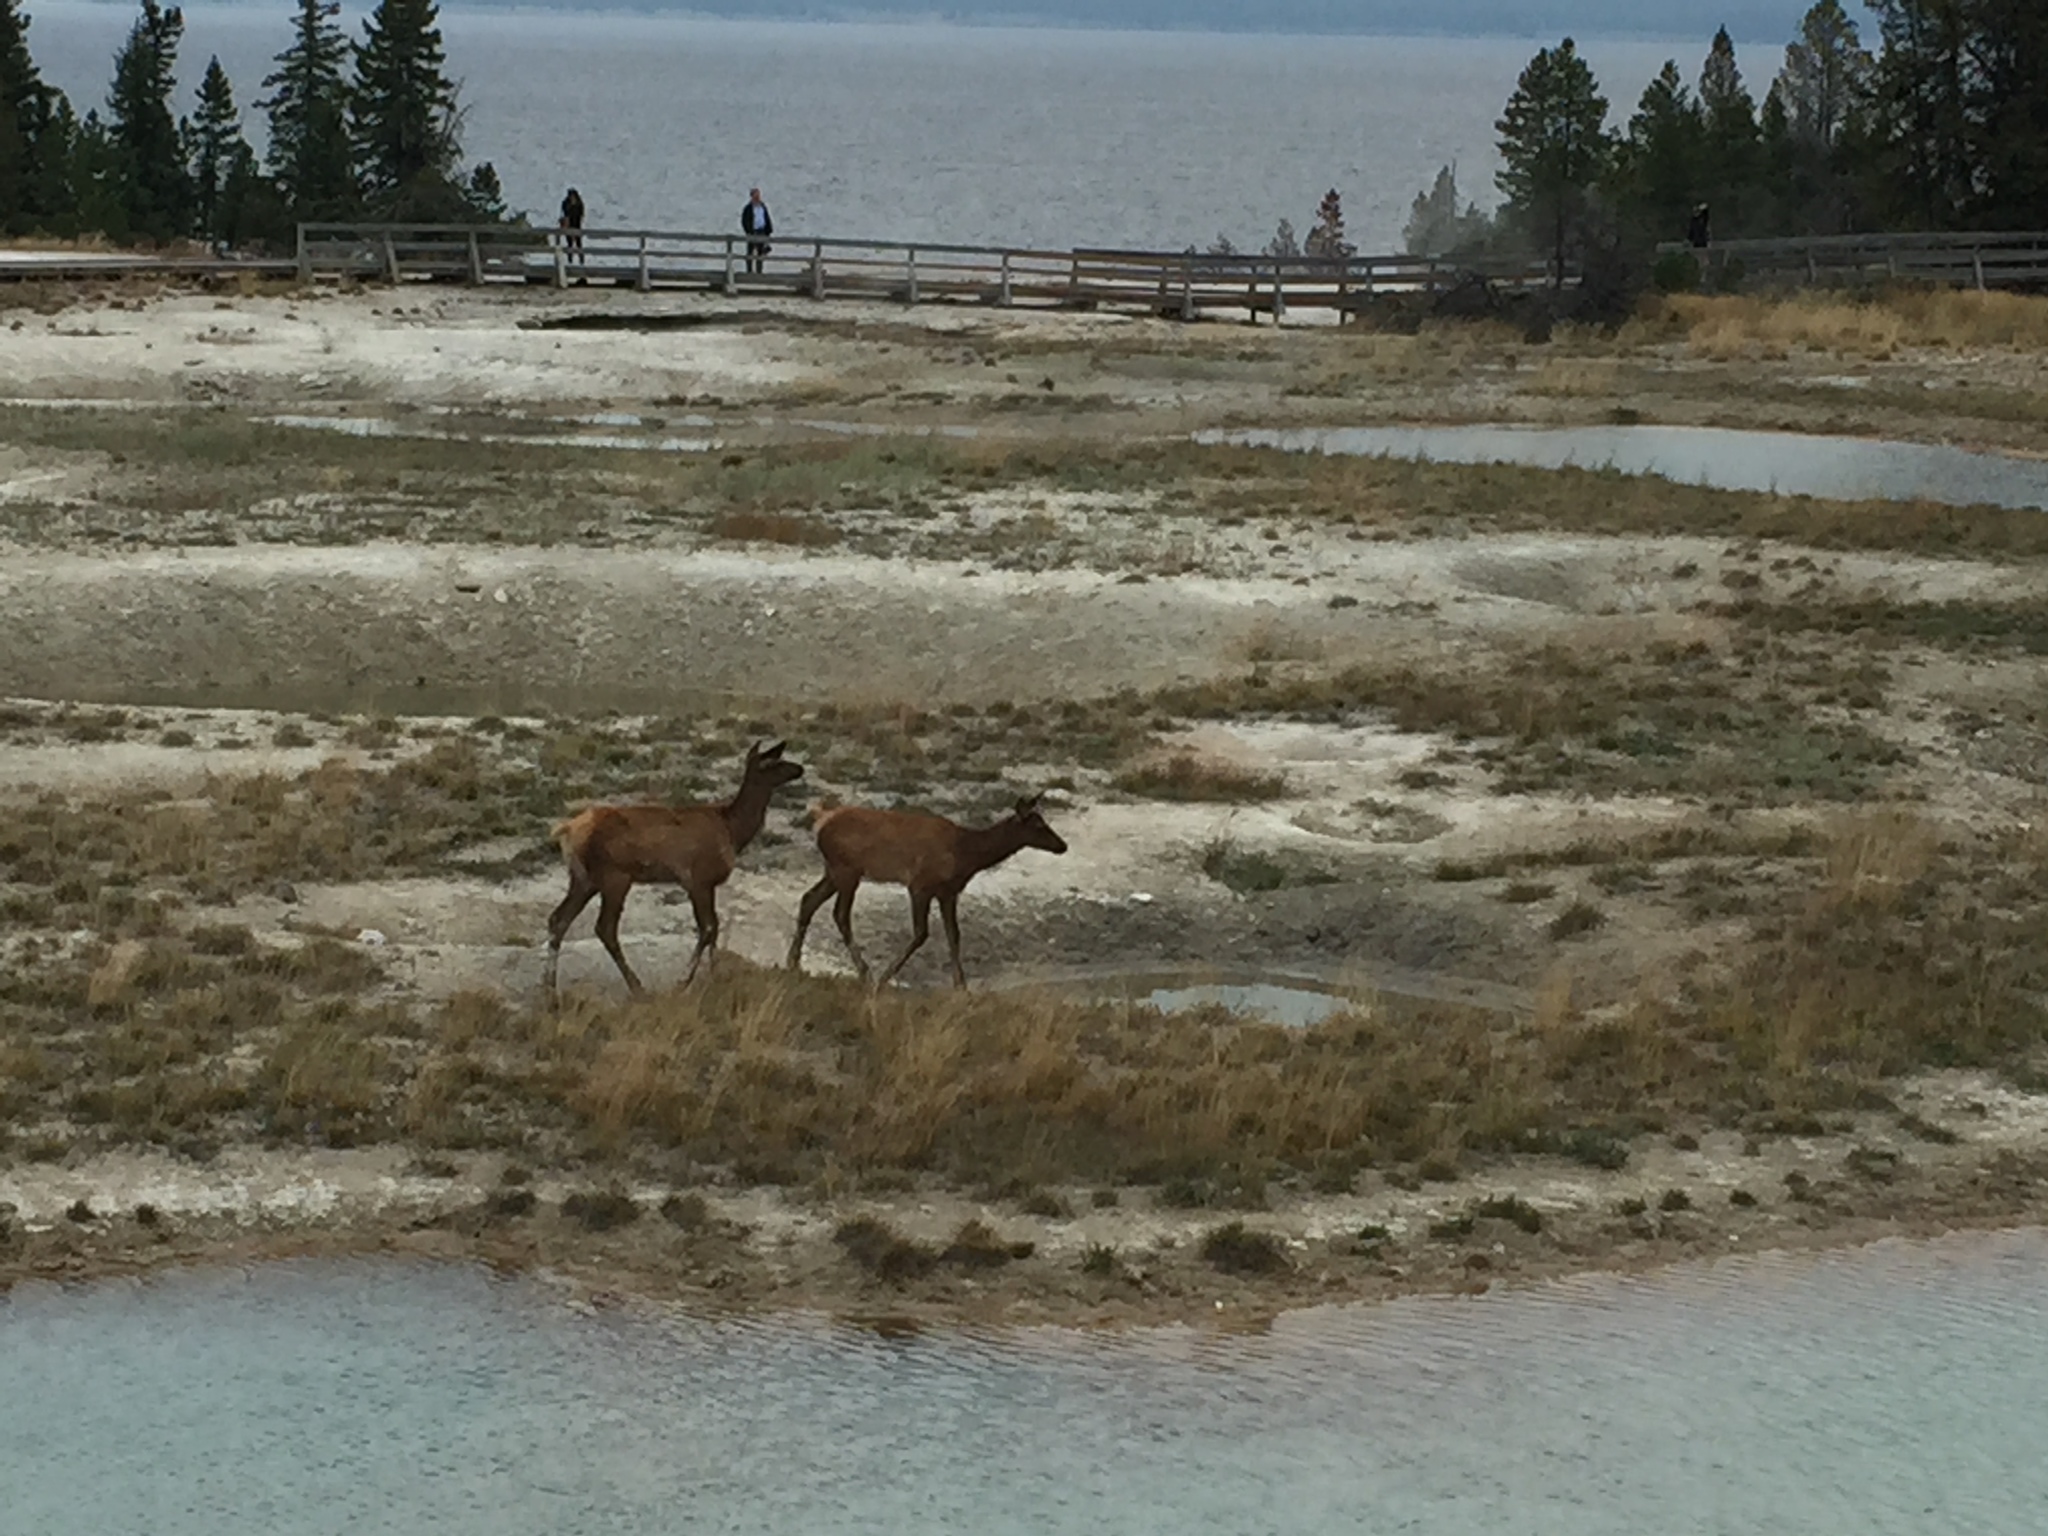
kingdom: Animalia
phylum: Chordata
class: Mammalia
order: Artiodactyla
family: Cervidae
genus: Cervus
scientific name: Cervus elaphus
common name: Red deer
